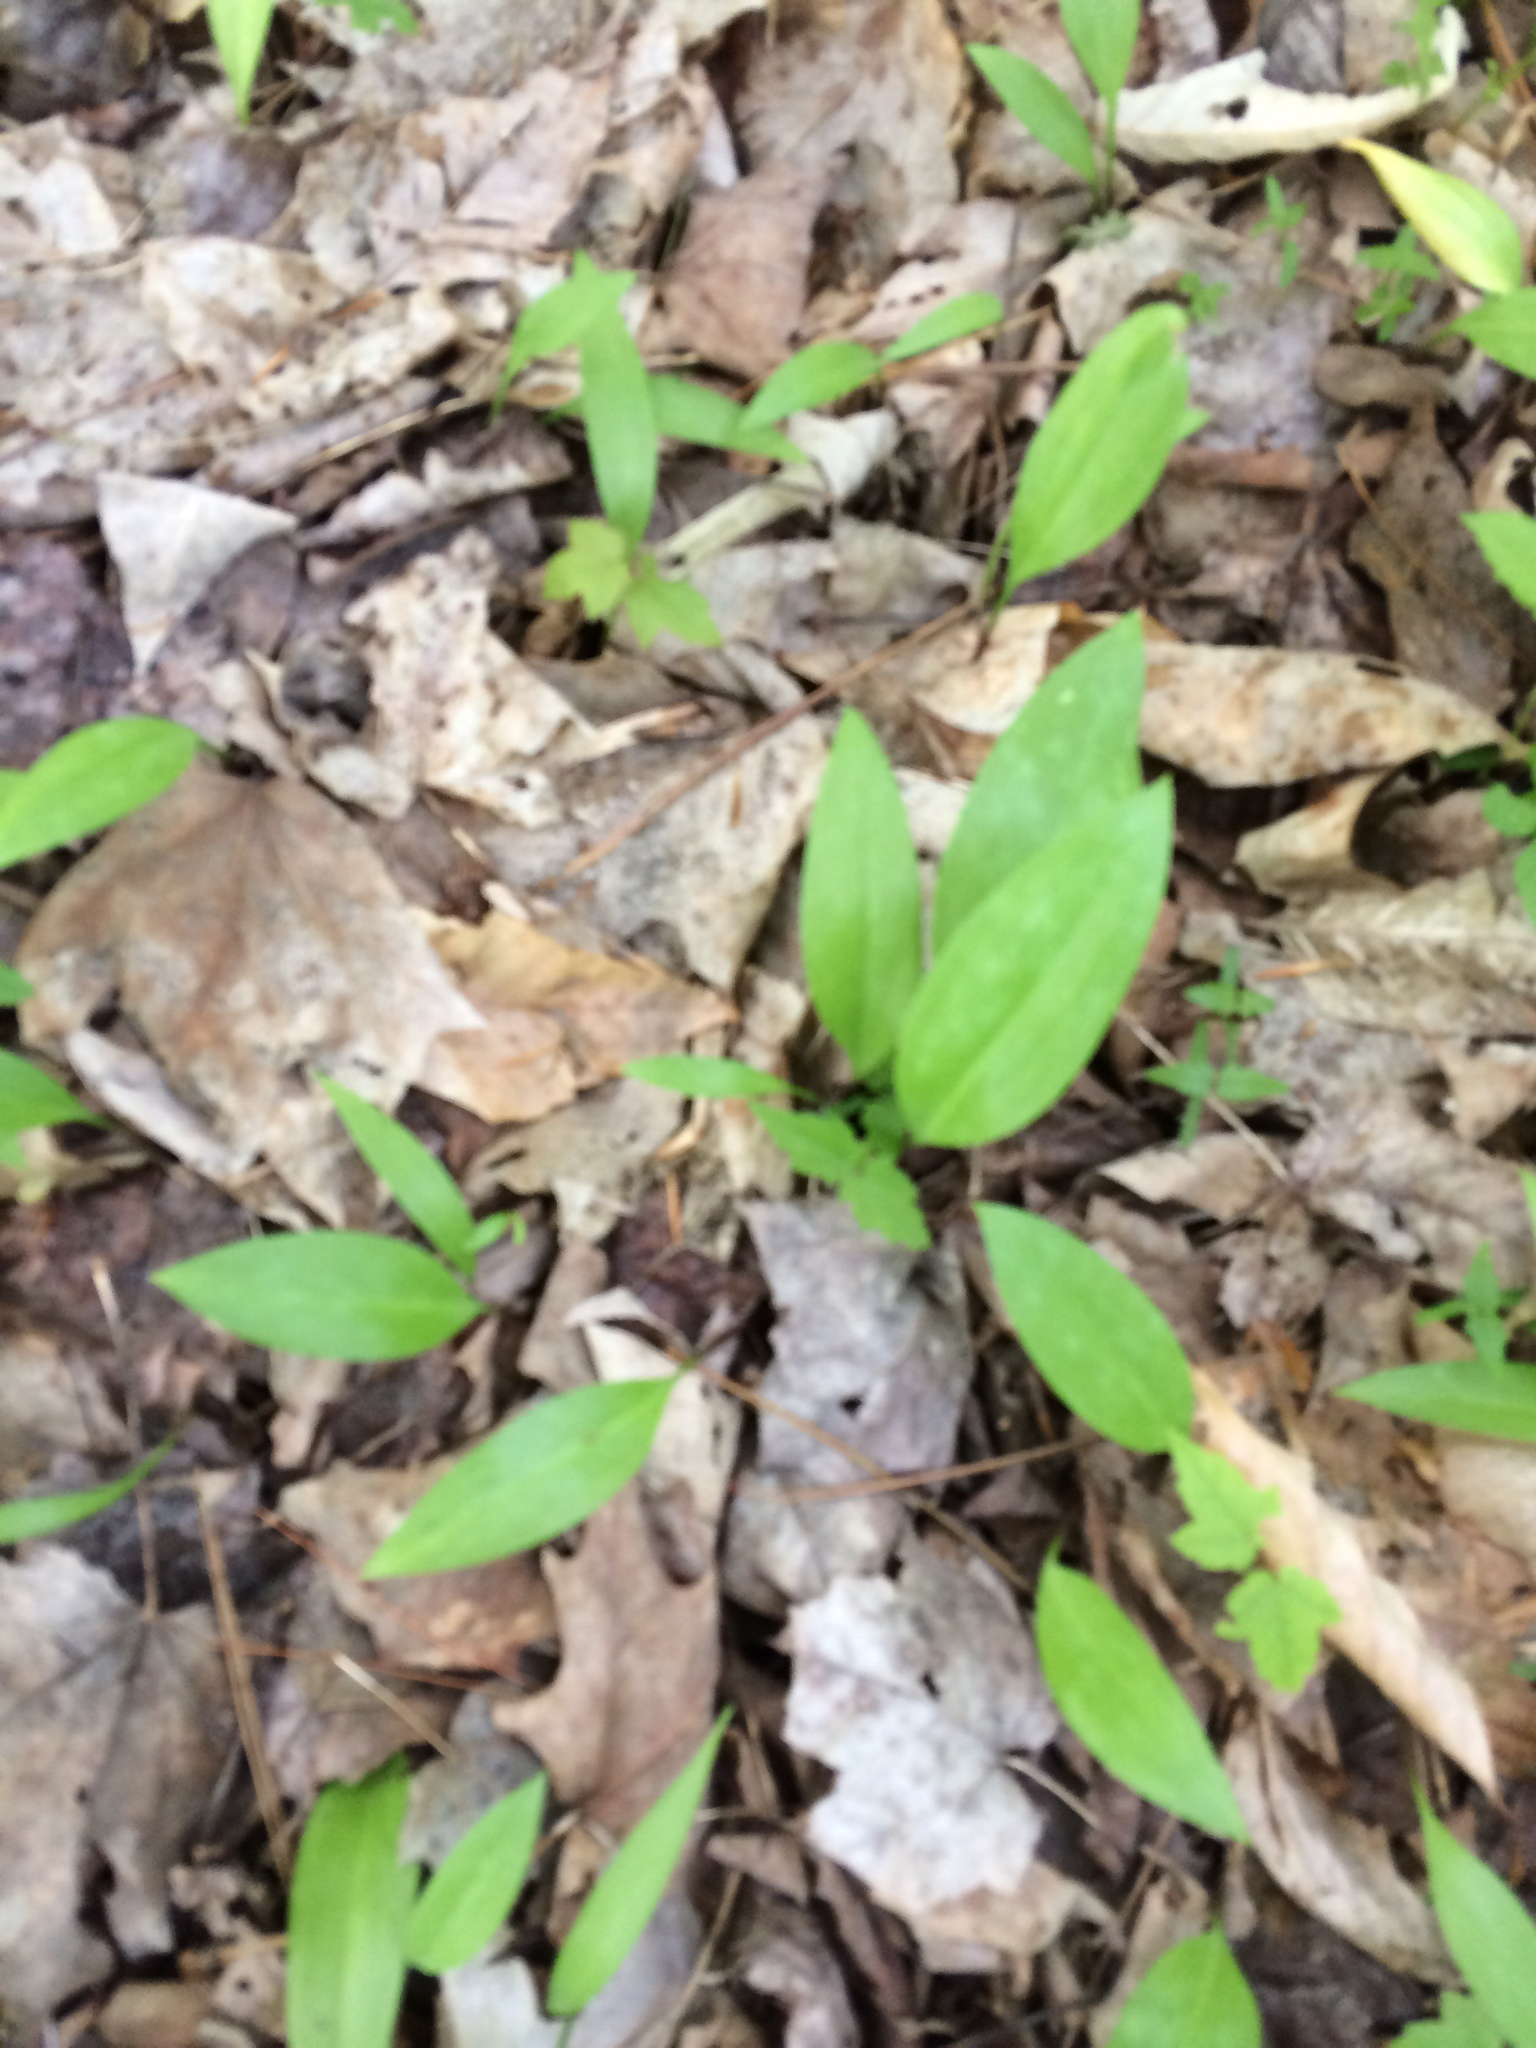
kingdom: Plantae
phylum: Tracheophyta
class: Liliopsida
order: Liliales
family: Liliaceae
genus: Erythronium
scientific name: Erythronium americanum
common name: Yellow adder's-tongue
